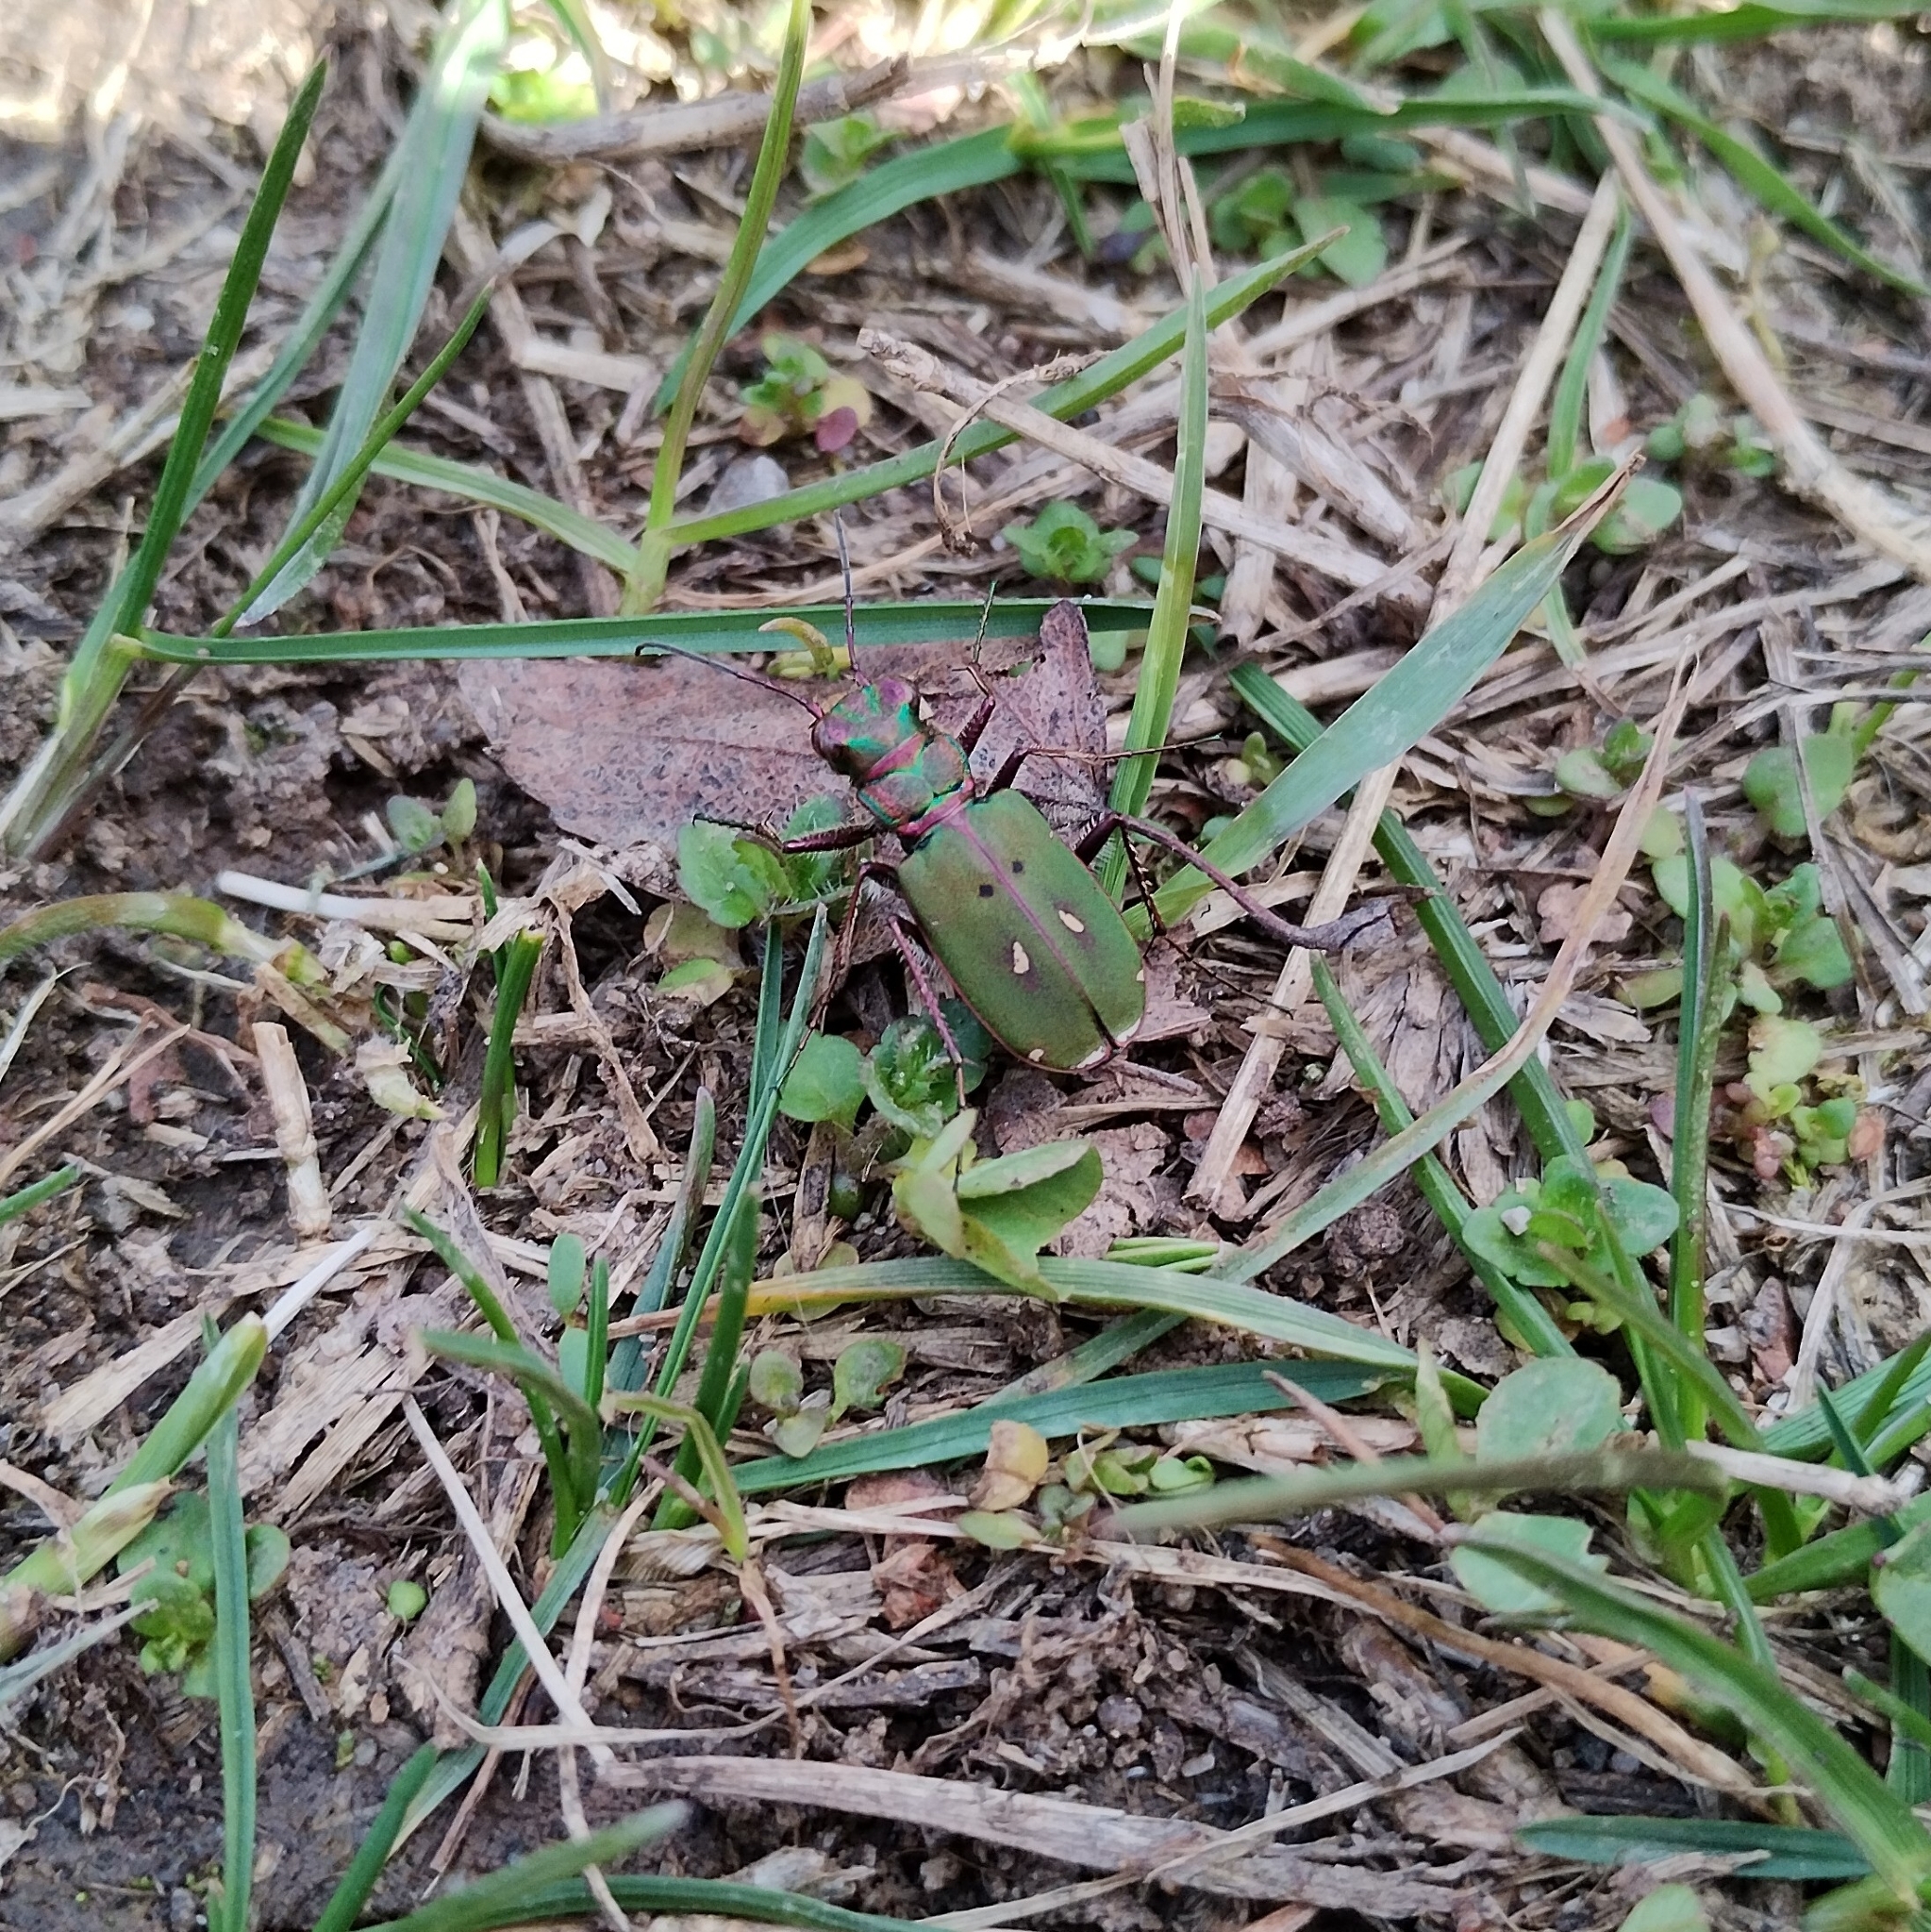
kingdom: Animalia
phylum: Arthropoda
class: Insecta
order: Coleoptera
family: Carabidae
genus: Cicindela
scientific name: Cicindela campestris
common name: Common tiger beetle
